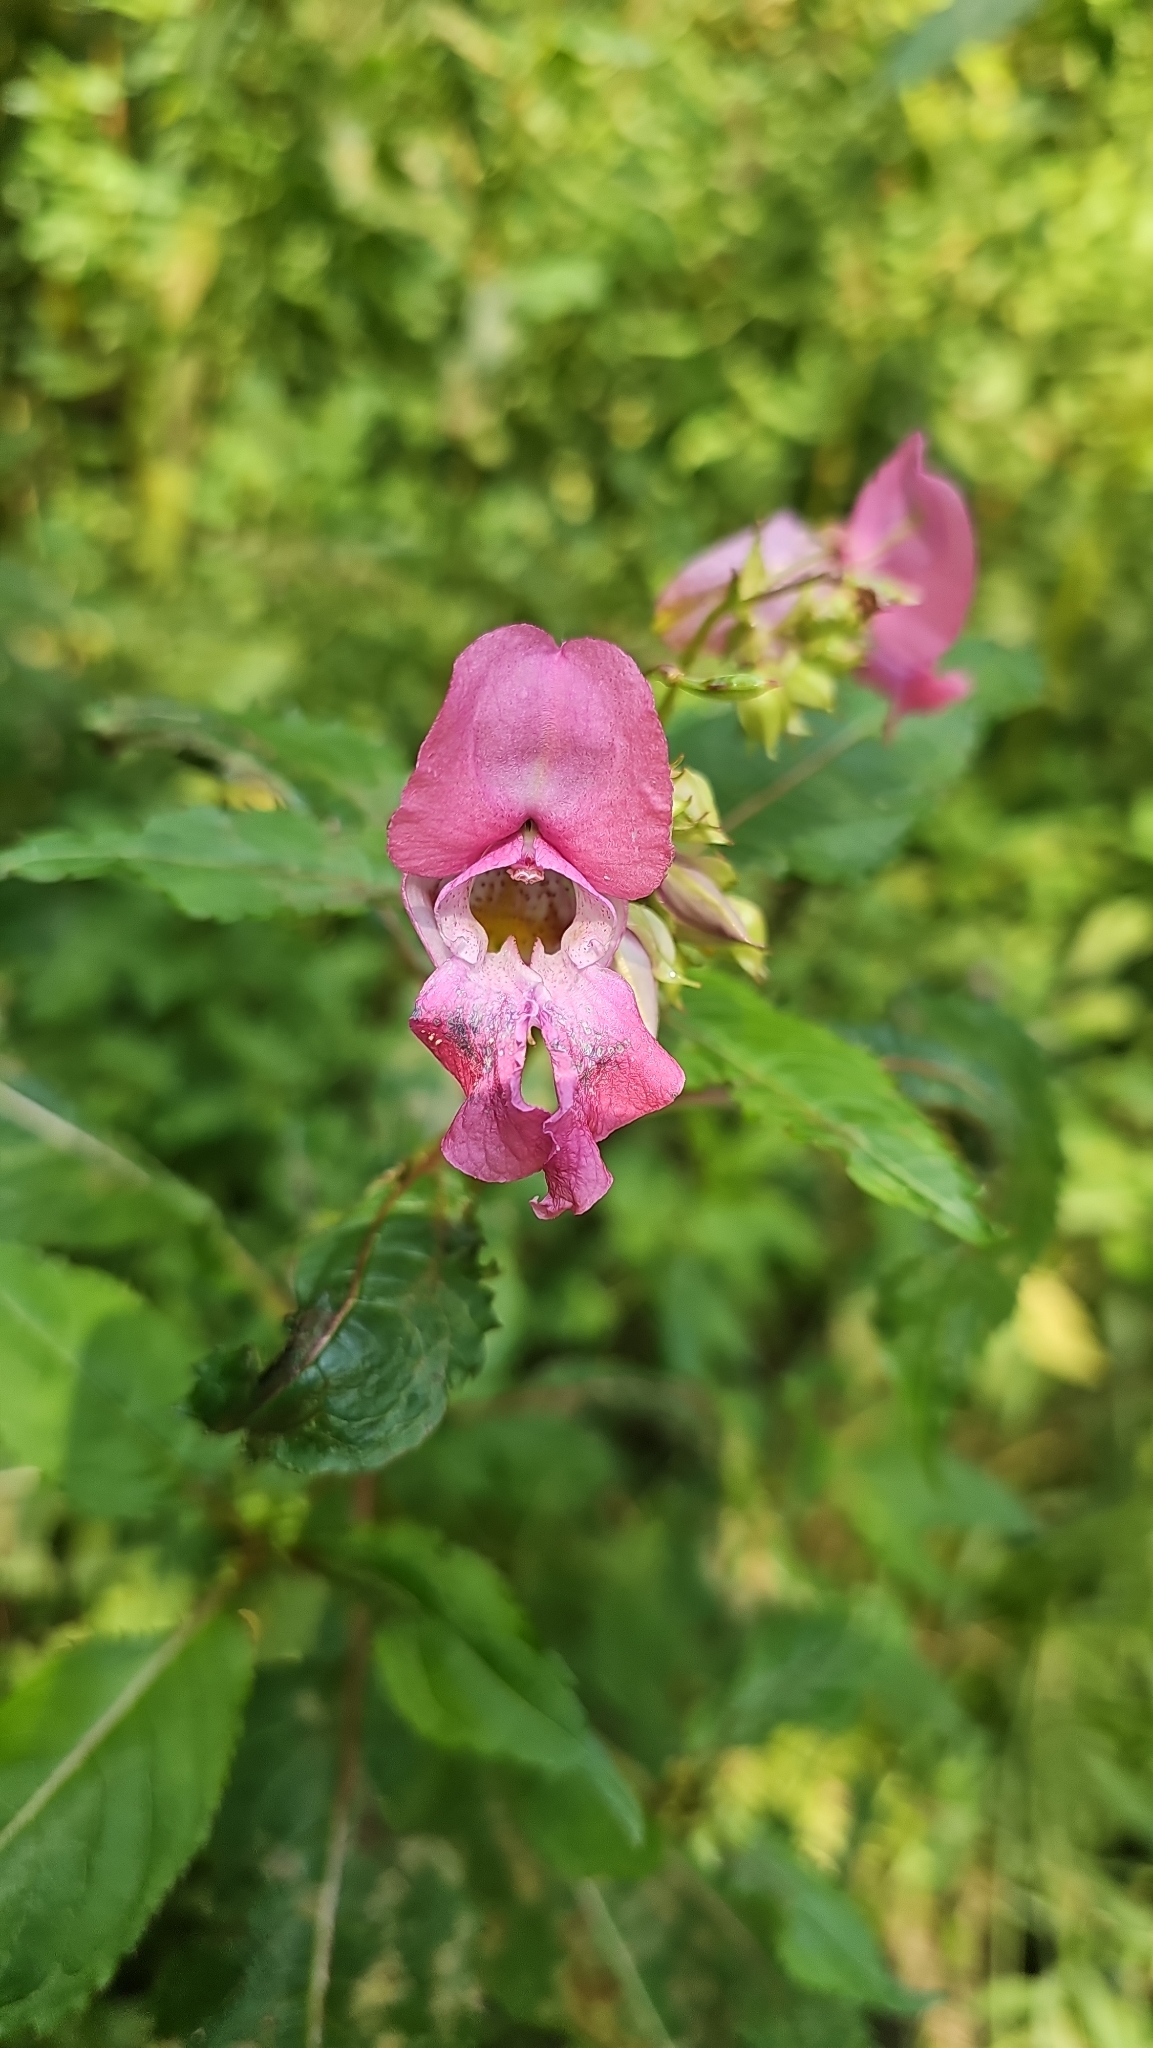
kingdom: Plantae
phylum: Tracheophyta
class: Magnoliopsida
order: Ericales
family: Balsaminaceae
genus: Impatiens
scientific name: Impatiens glandulifera
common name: Himalayan balsam
